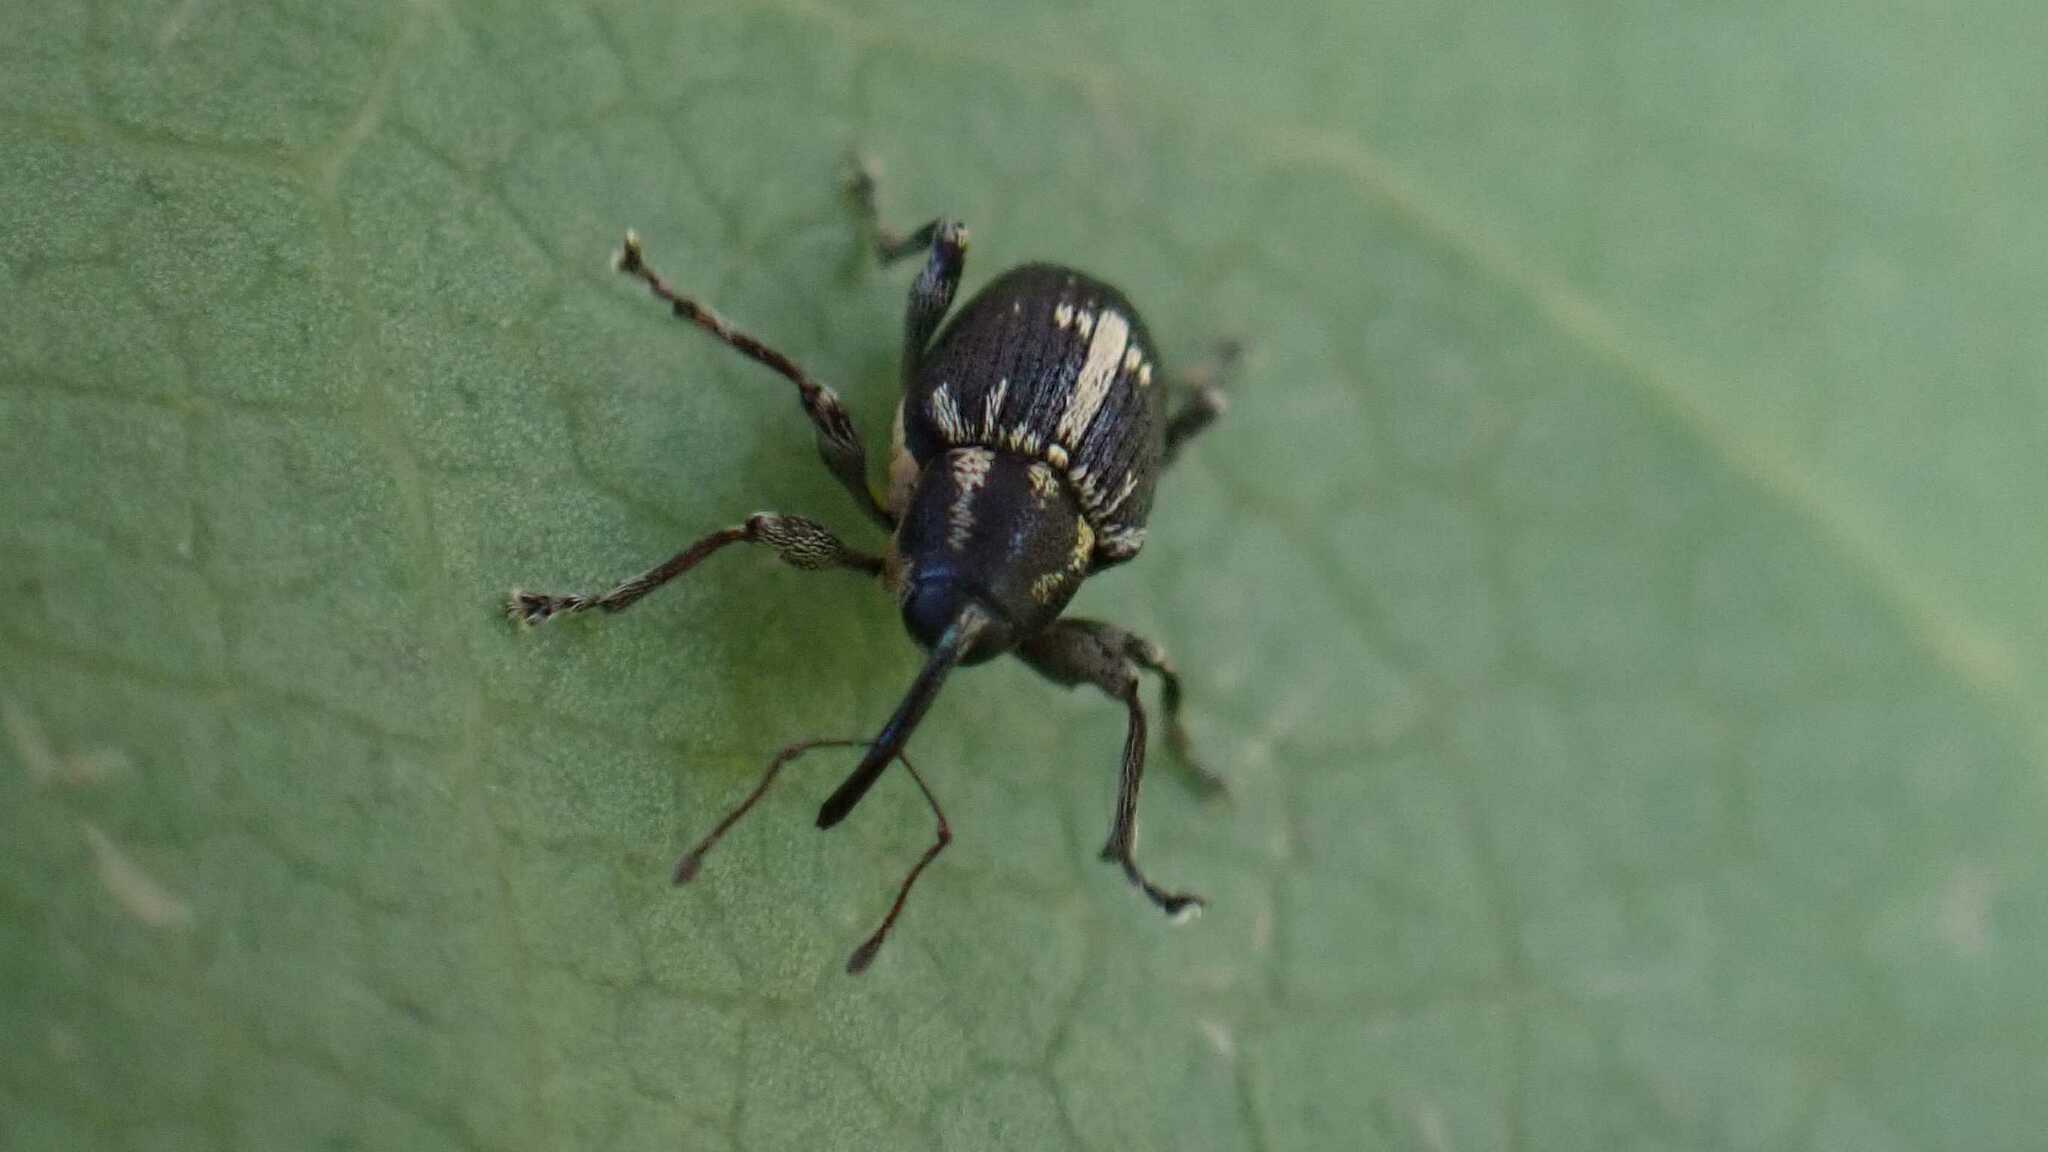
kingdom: Animalia
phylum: Arthropoda
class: Insecta
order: Coleoptera
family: Curculionidae
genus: Archarius
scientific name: Archarius crux
